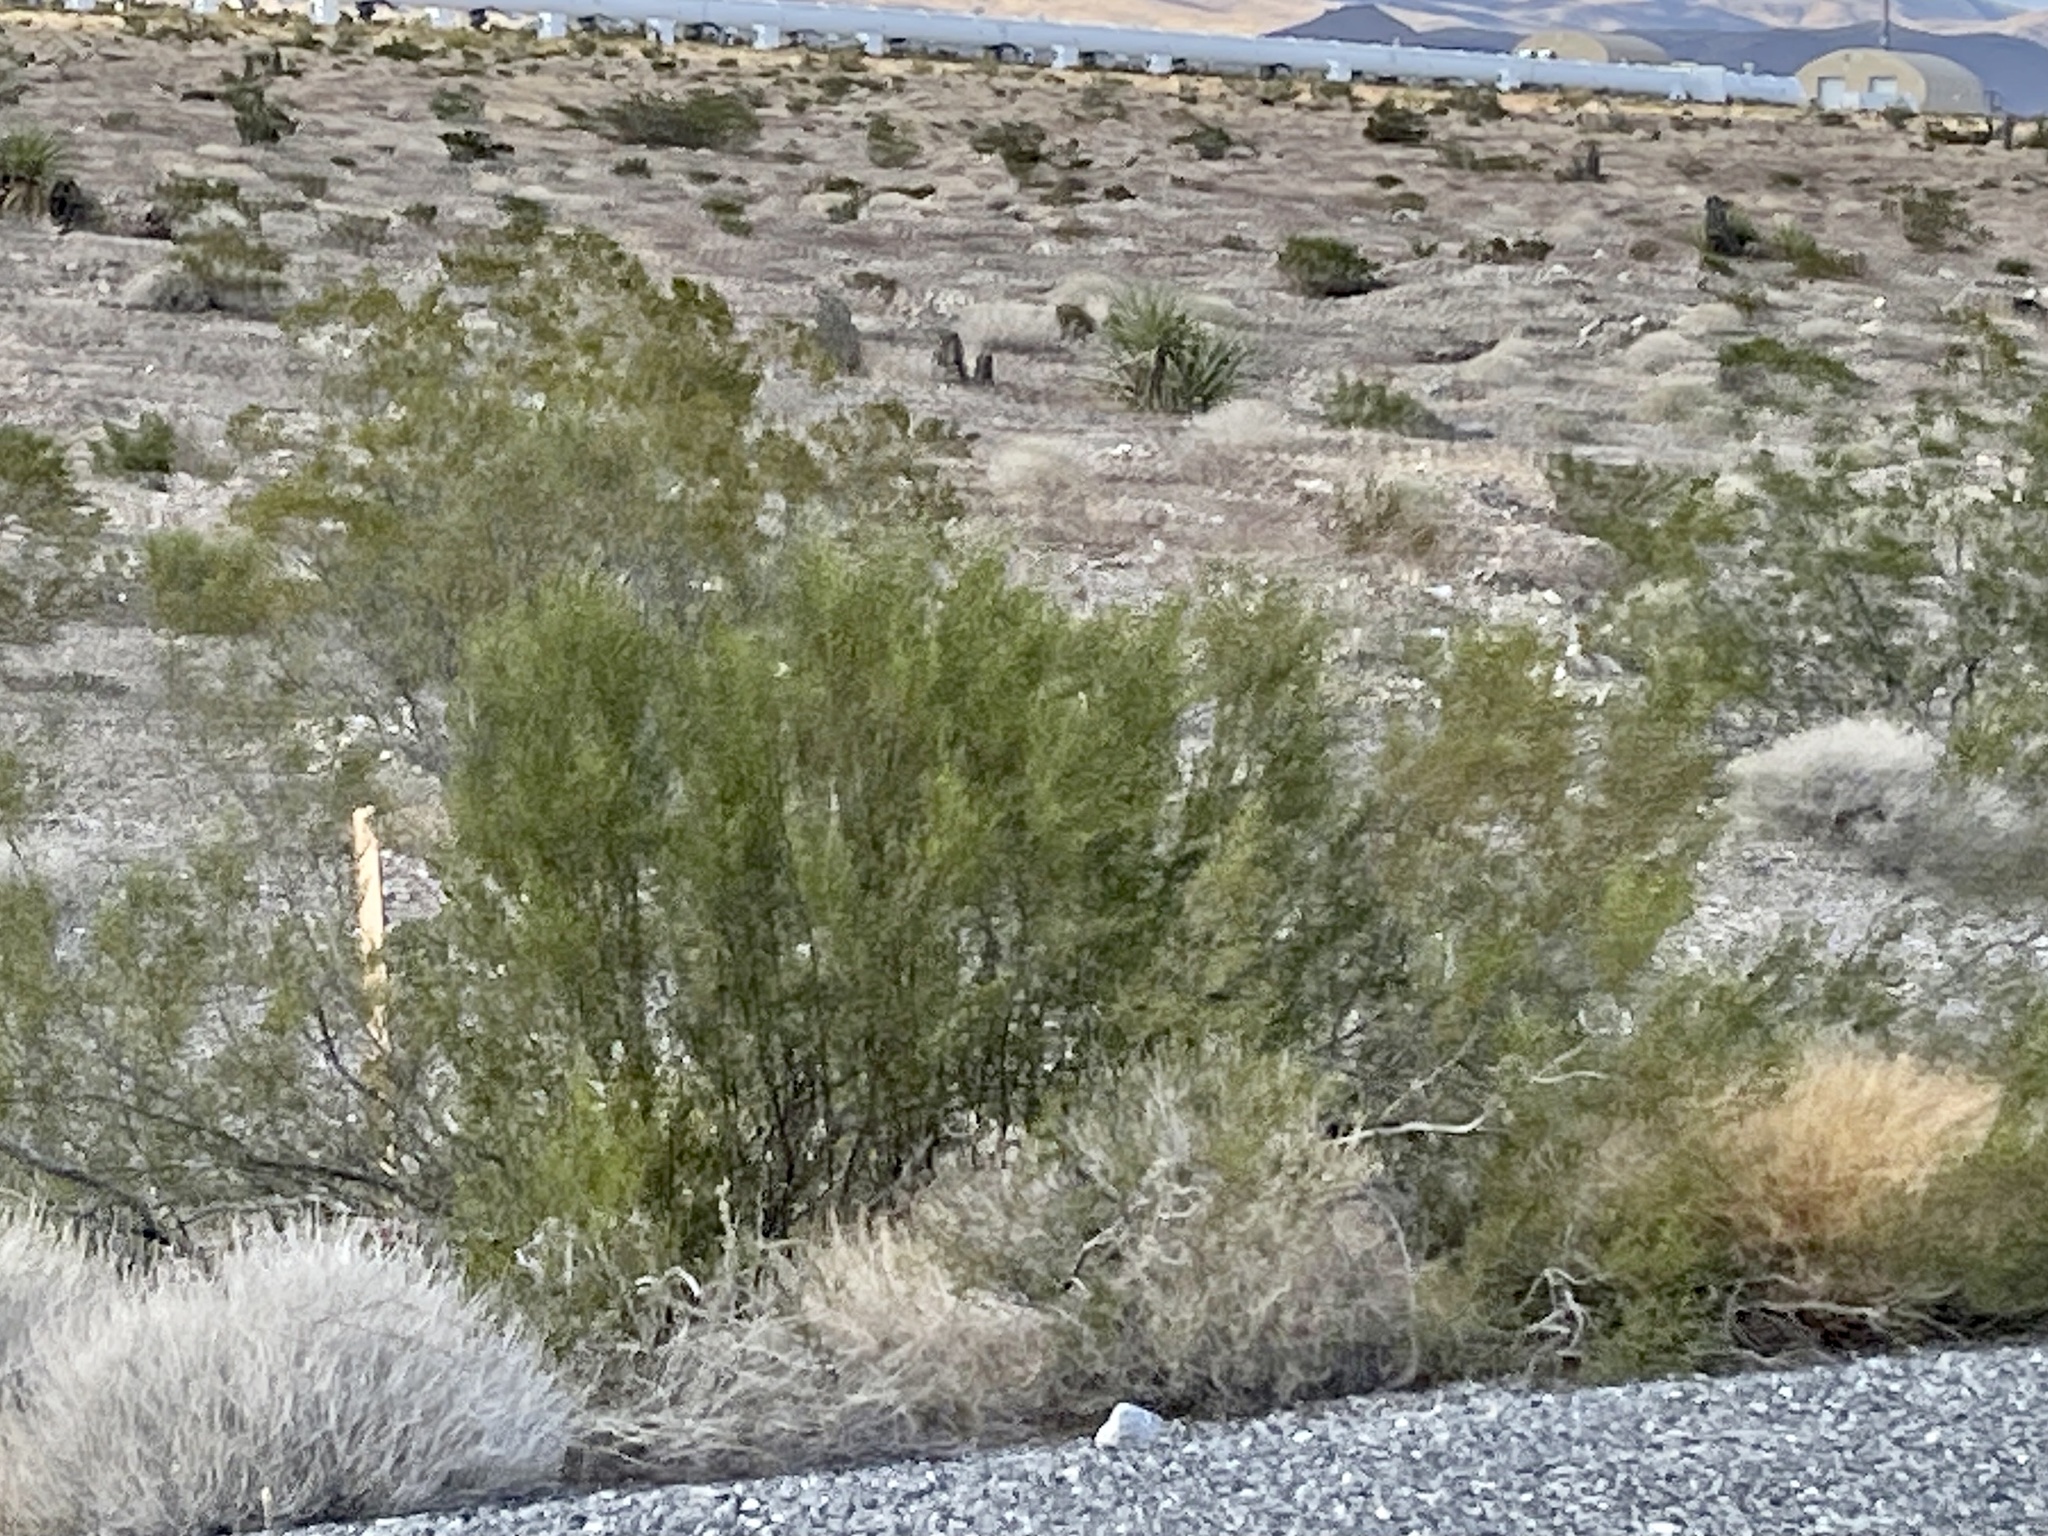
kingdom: Plantae
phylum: Tracheophyta
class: Magnoliopsida
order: Zygophyllales
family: Zygophyllaceae
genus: Larrea
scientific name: Larrea tridentata
